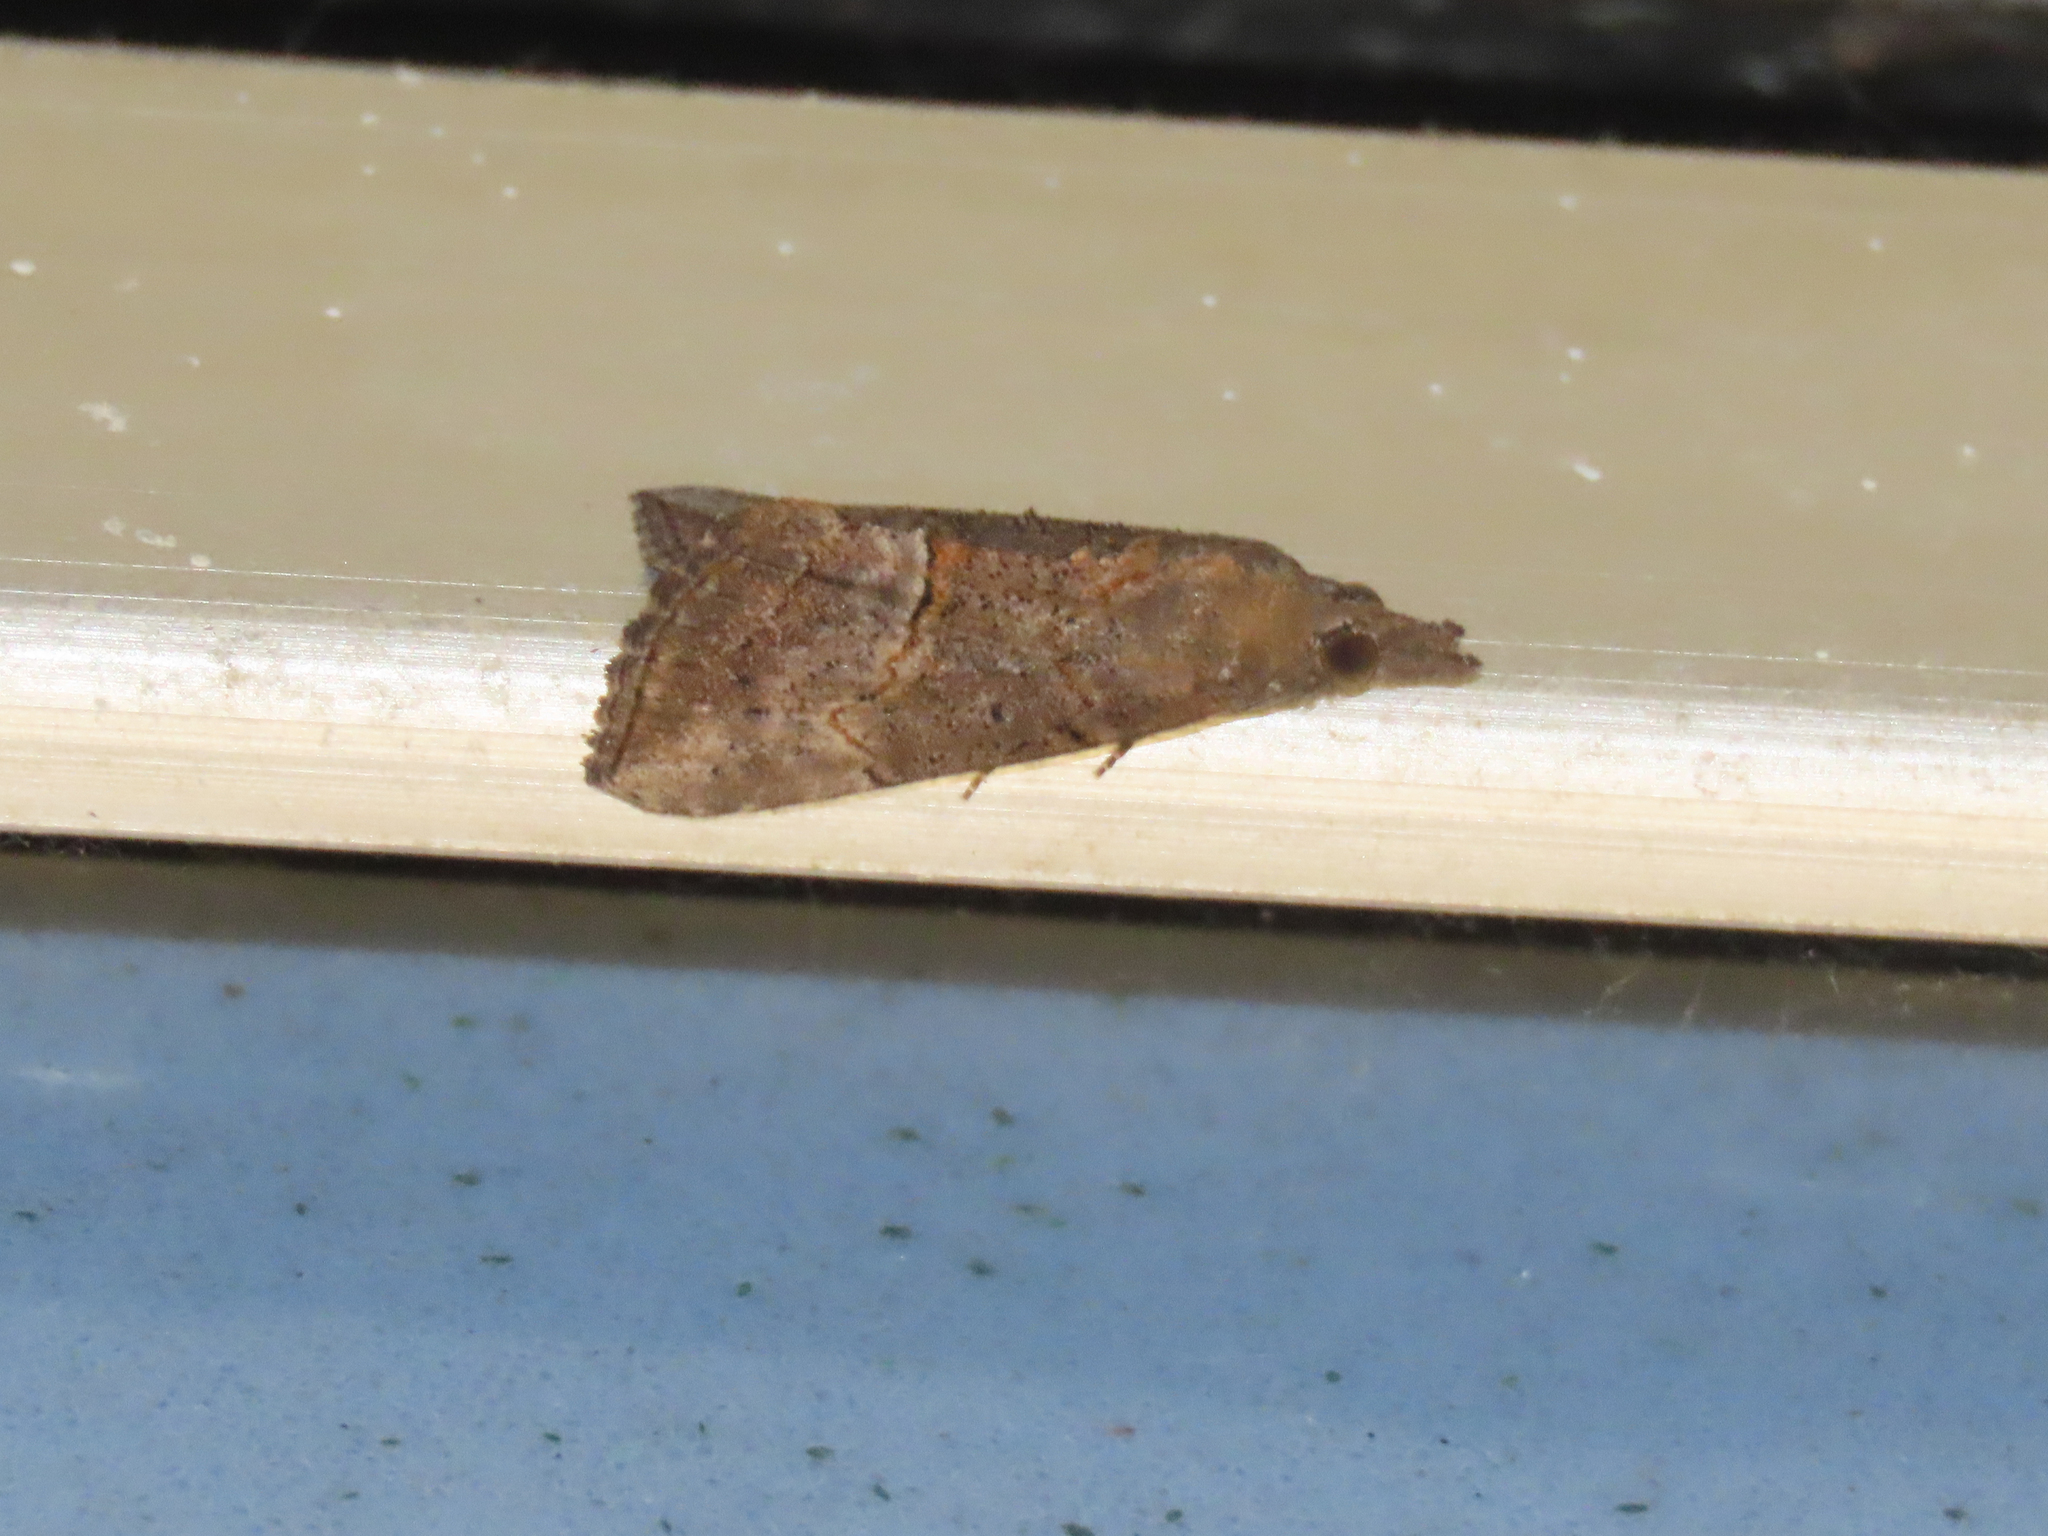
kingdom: Animalia
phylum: Arthropoda
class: Insecta
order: Lepidoptera
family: Erebidae
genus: Hypena
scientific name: Hypena scabra
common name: Green cloverworm
